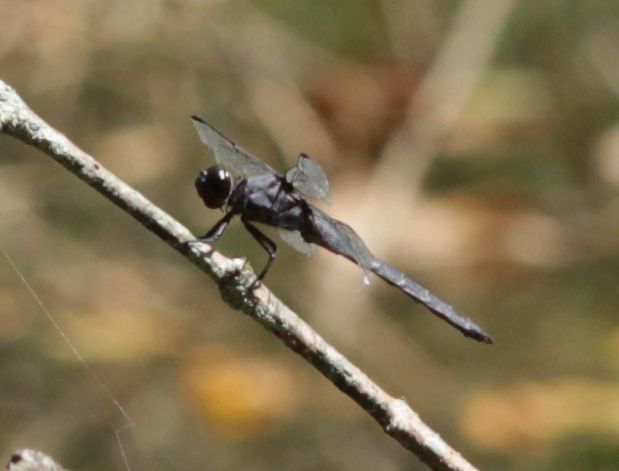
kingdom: Animalia
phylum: Arthropoda
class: Insecta
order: Odonata
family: Libellulidae
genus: Libellula
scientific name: Libellula incesta
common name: Slaty skimmer
